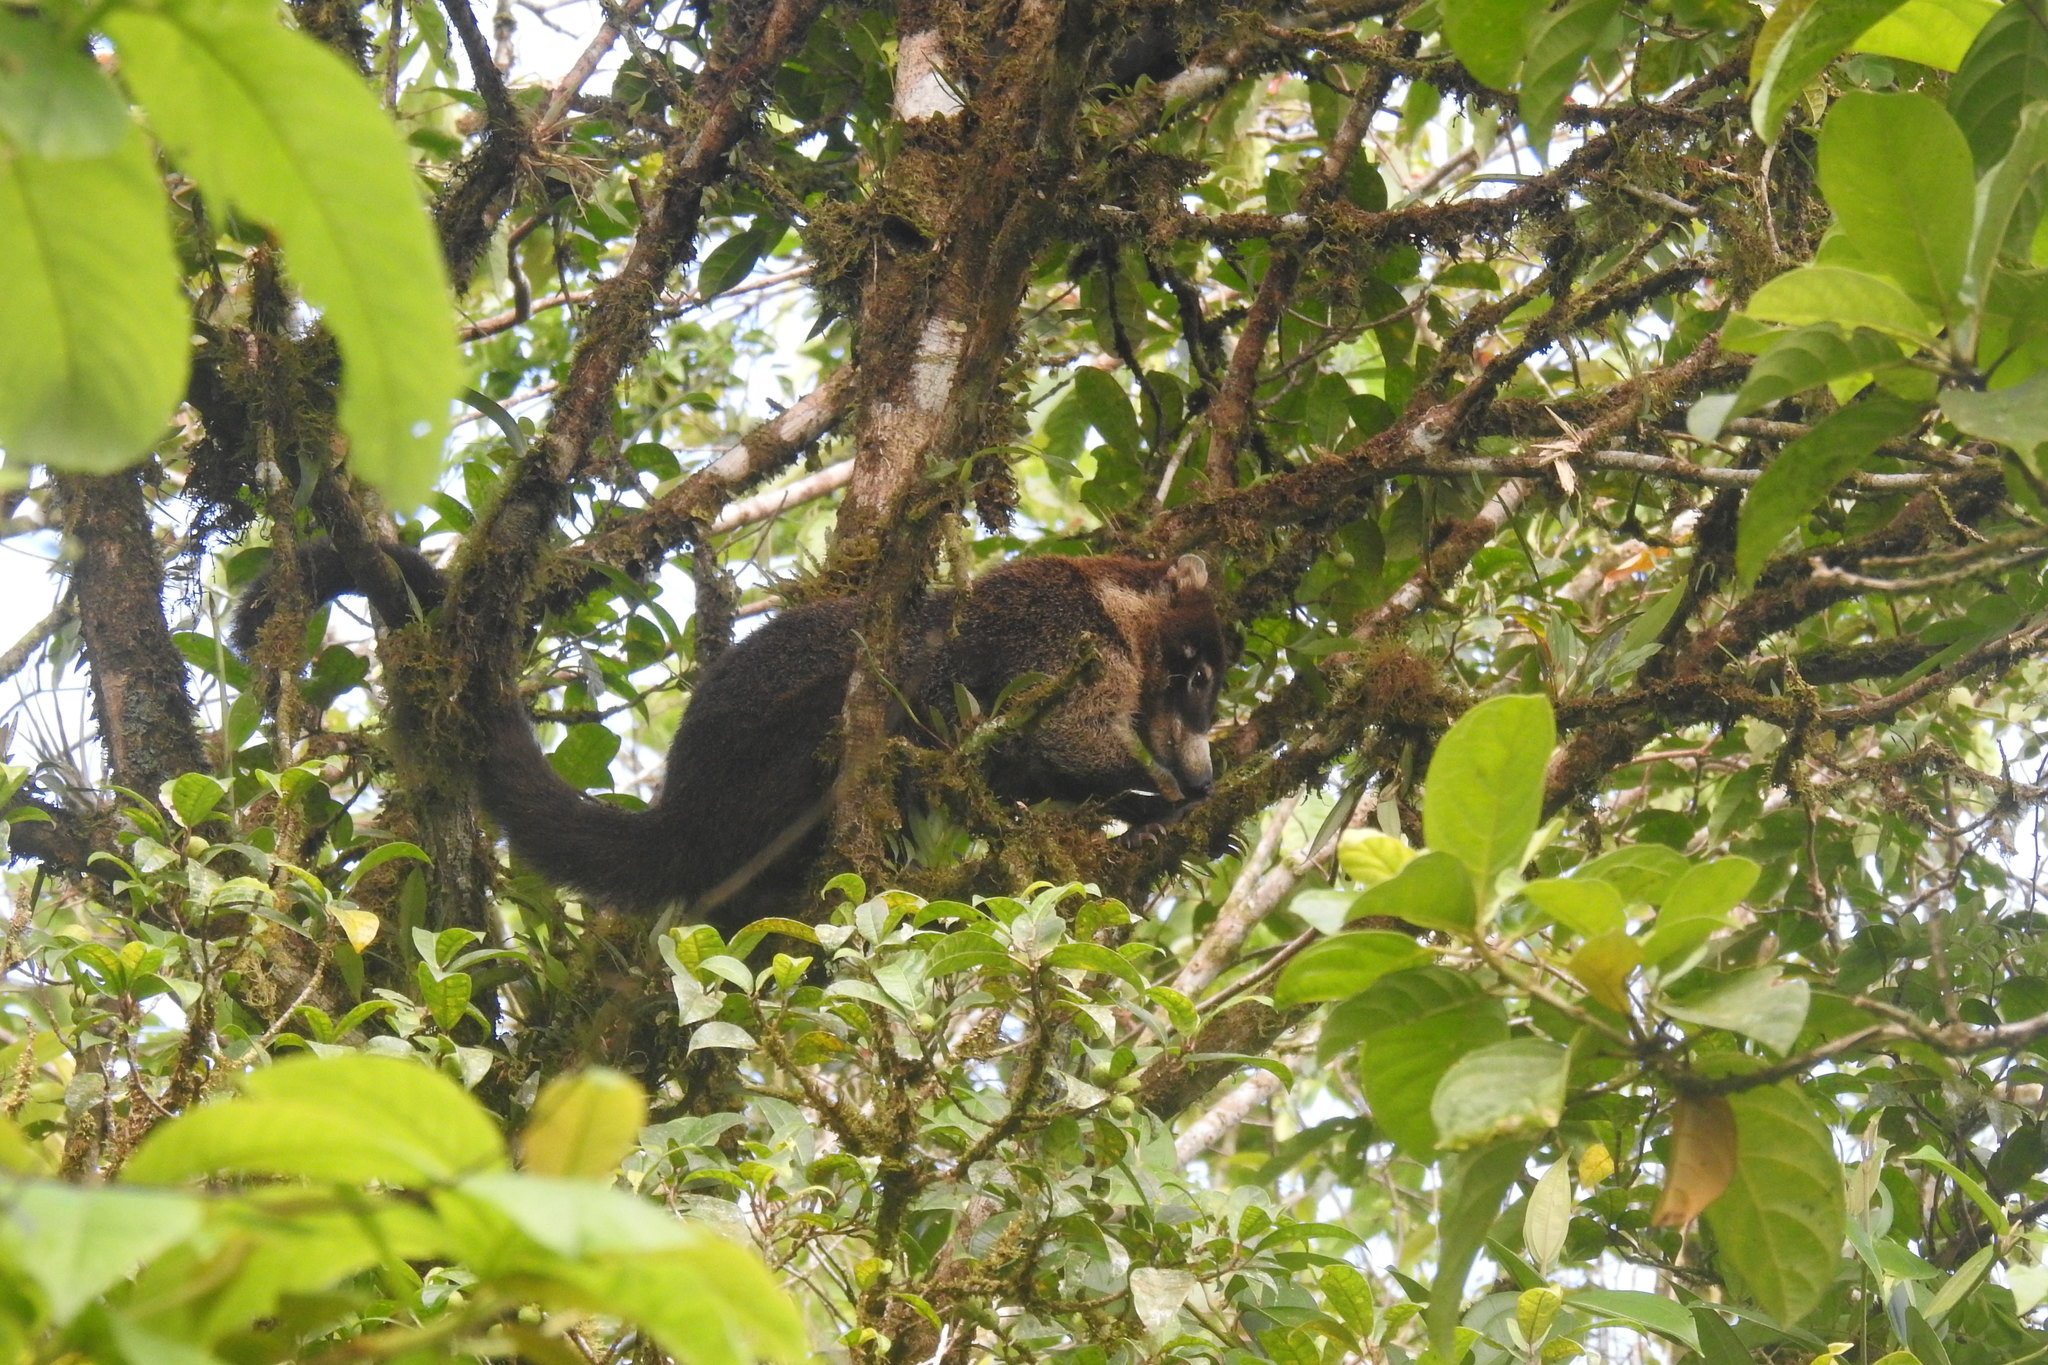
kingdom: Animalia
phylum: Chordata
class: Mammalia
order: Carnivora
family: Procyonidae
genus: Nasua
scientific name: Nasua narica
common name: White-nosed coati
